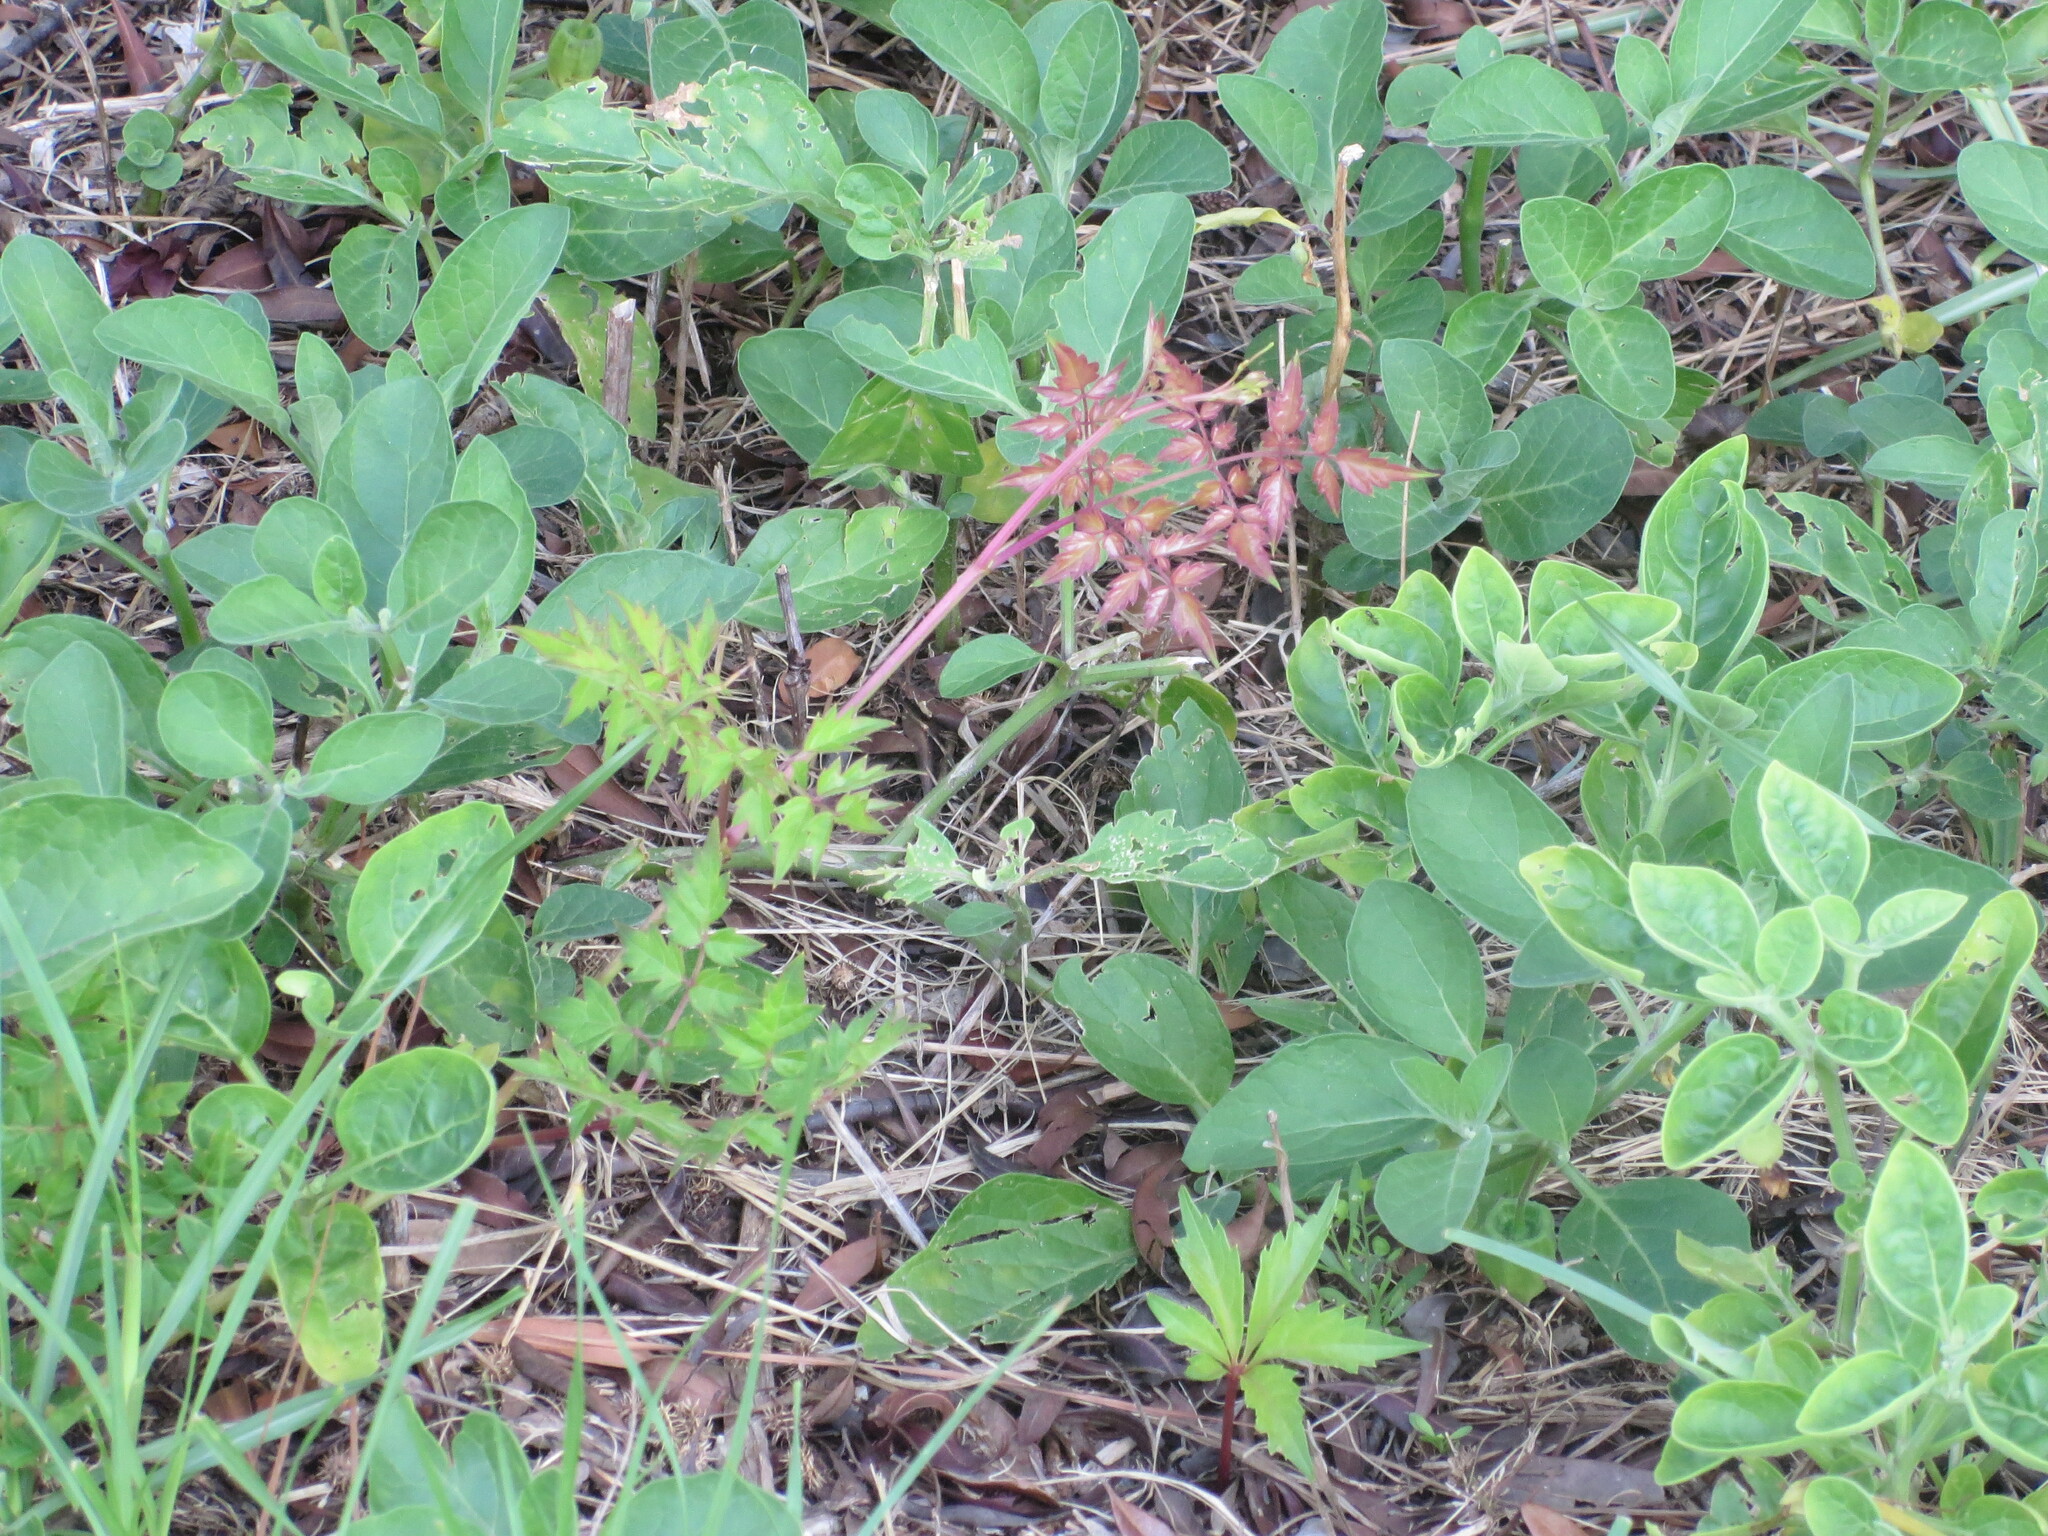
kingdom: Plantae
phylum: Tracheophyta
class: Magnoliopsida
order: Vitales
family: Vitaceae
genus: Nekemias
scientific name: Nekemias arborea
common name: Peppervine
